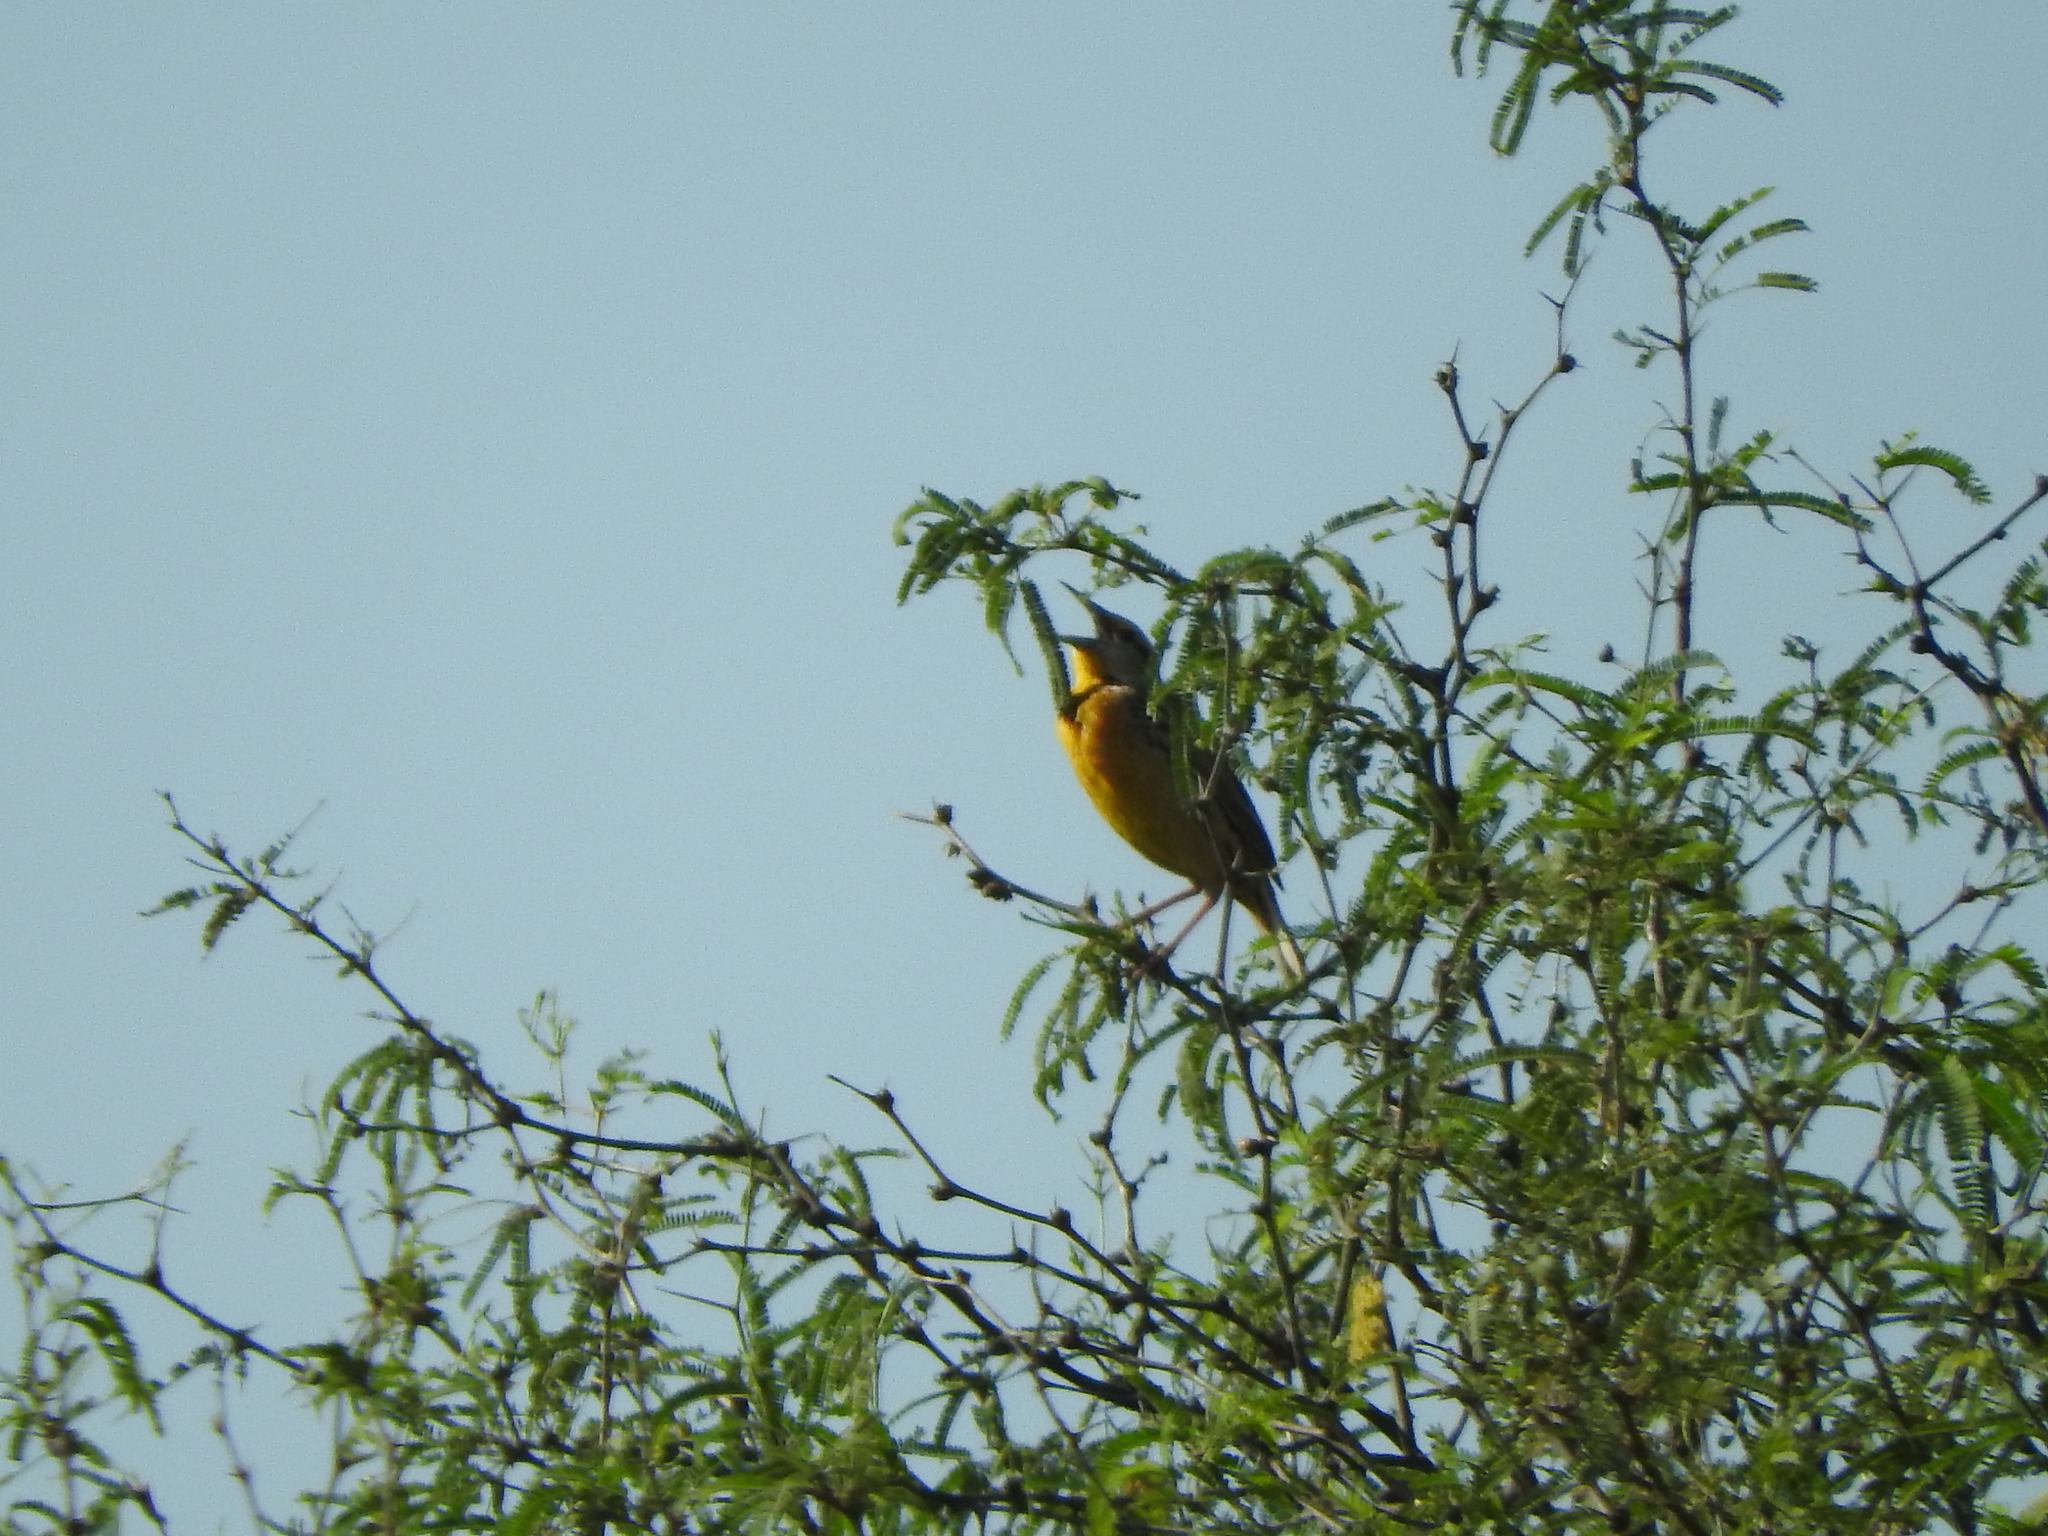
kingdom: Animalia
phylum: Chordata
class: Aves
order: Passeriformes
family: Icteridae
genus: Sturnella
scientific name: Sturnella lilianae
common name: Lilian's meadowlark
